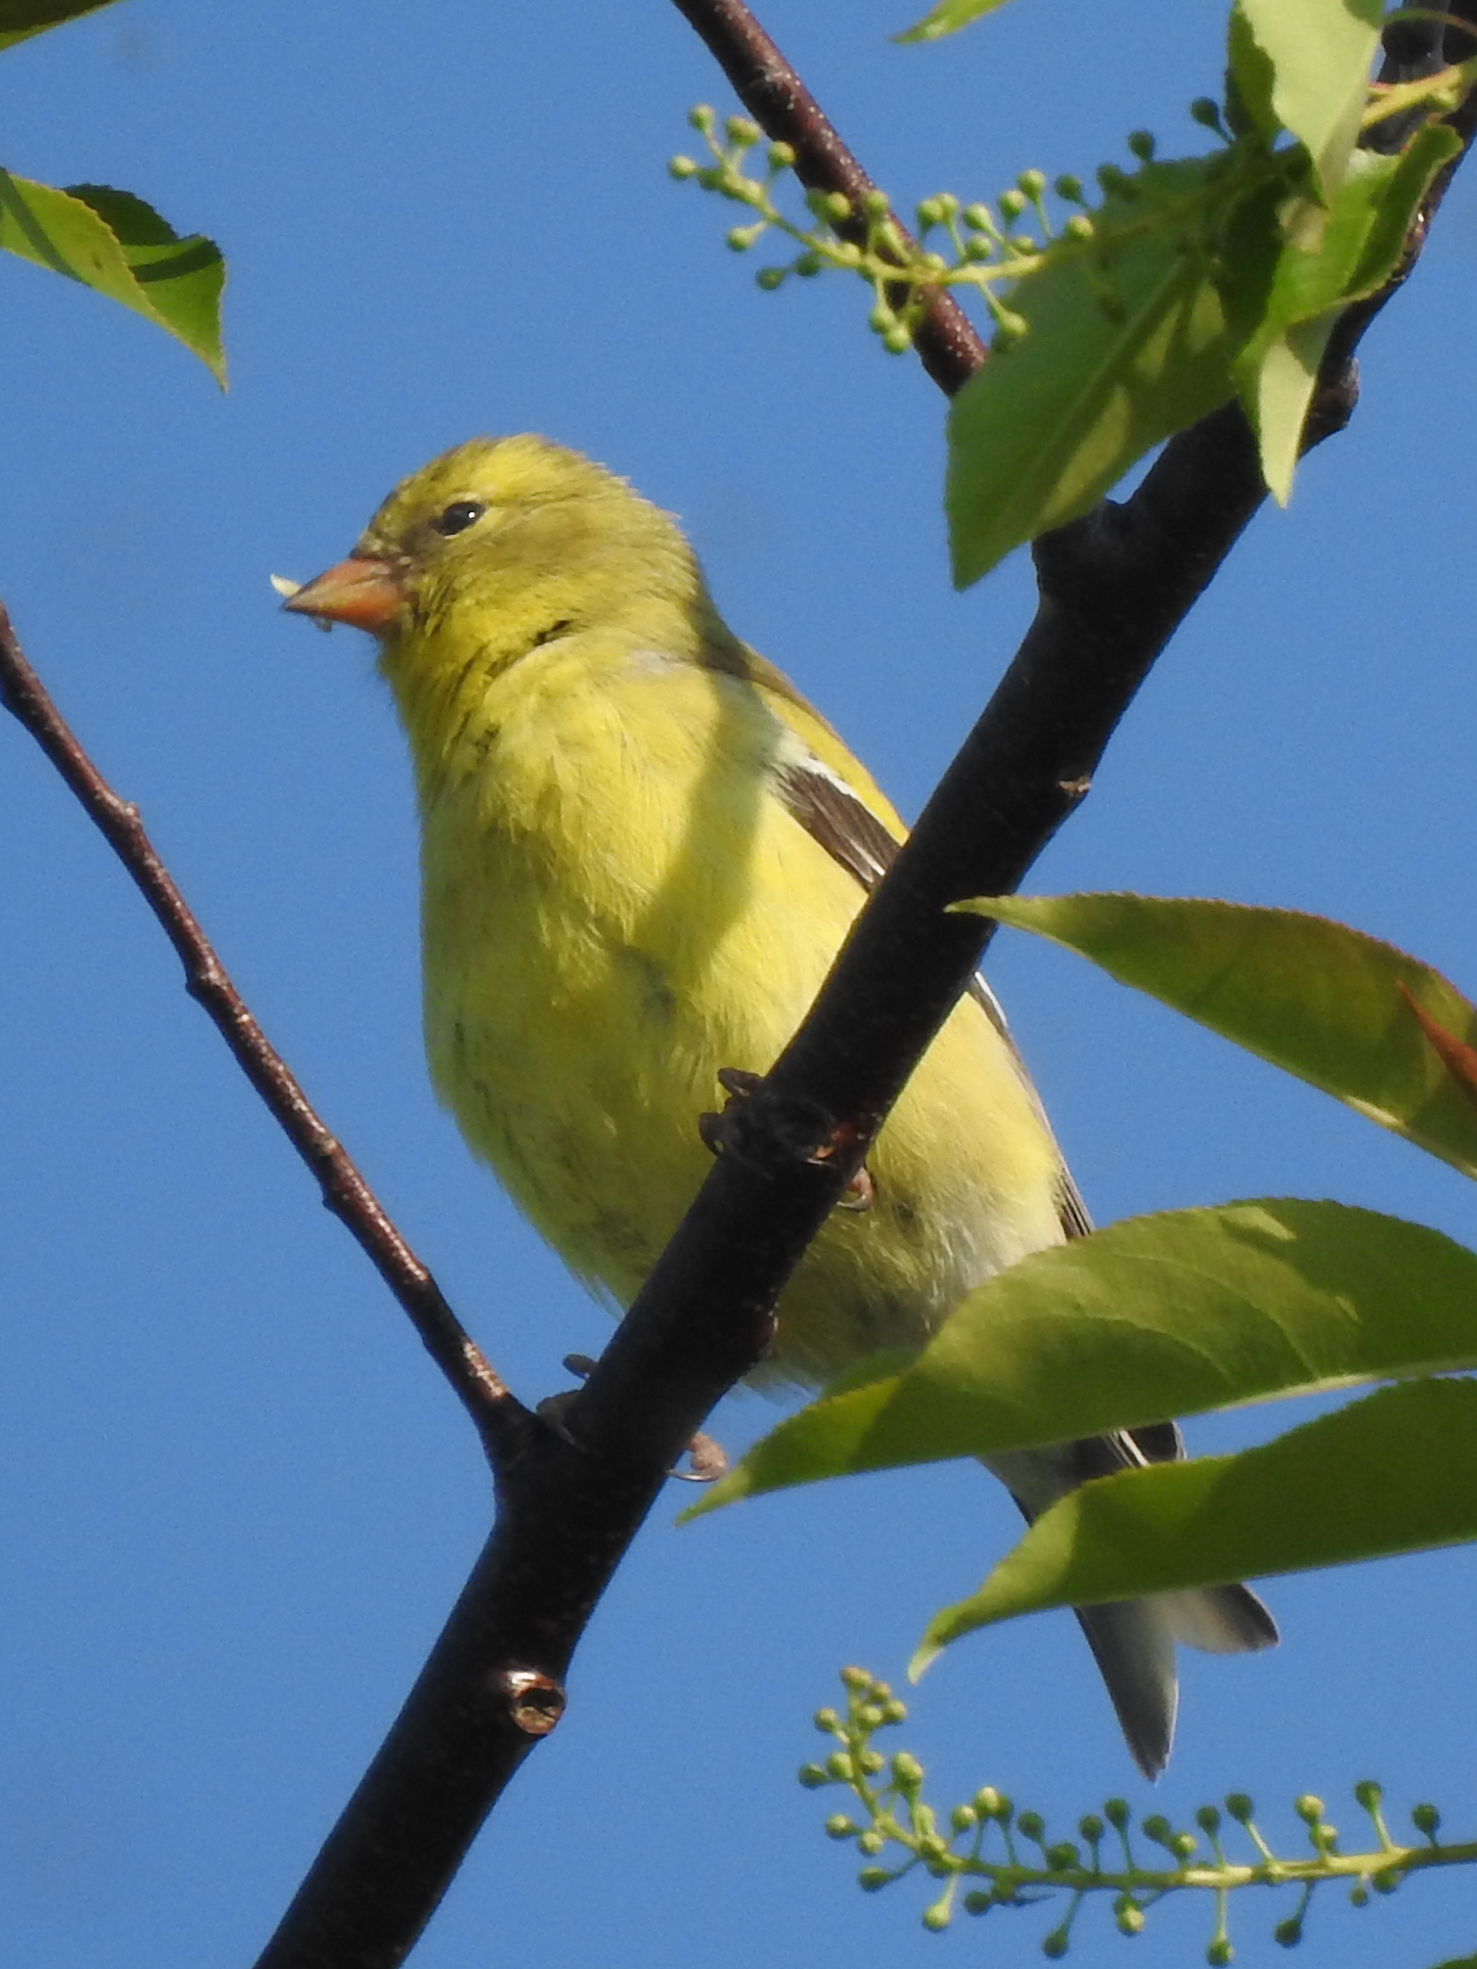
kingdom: Animalia
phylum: Chordata
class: Aves
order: Passeriformes
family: Fringillidae
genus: Spinus
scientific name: Spinus tristis
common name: American goldfinch
